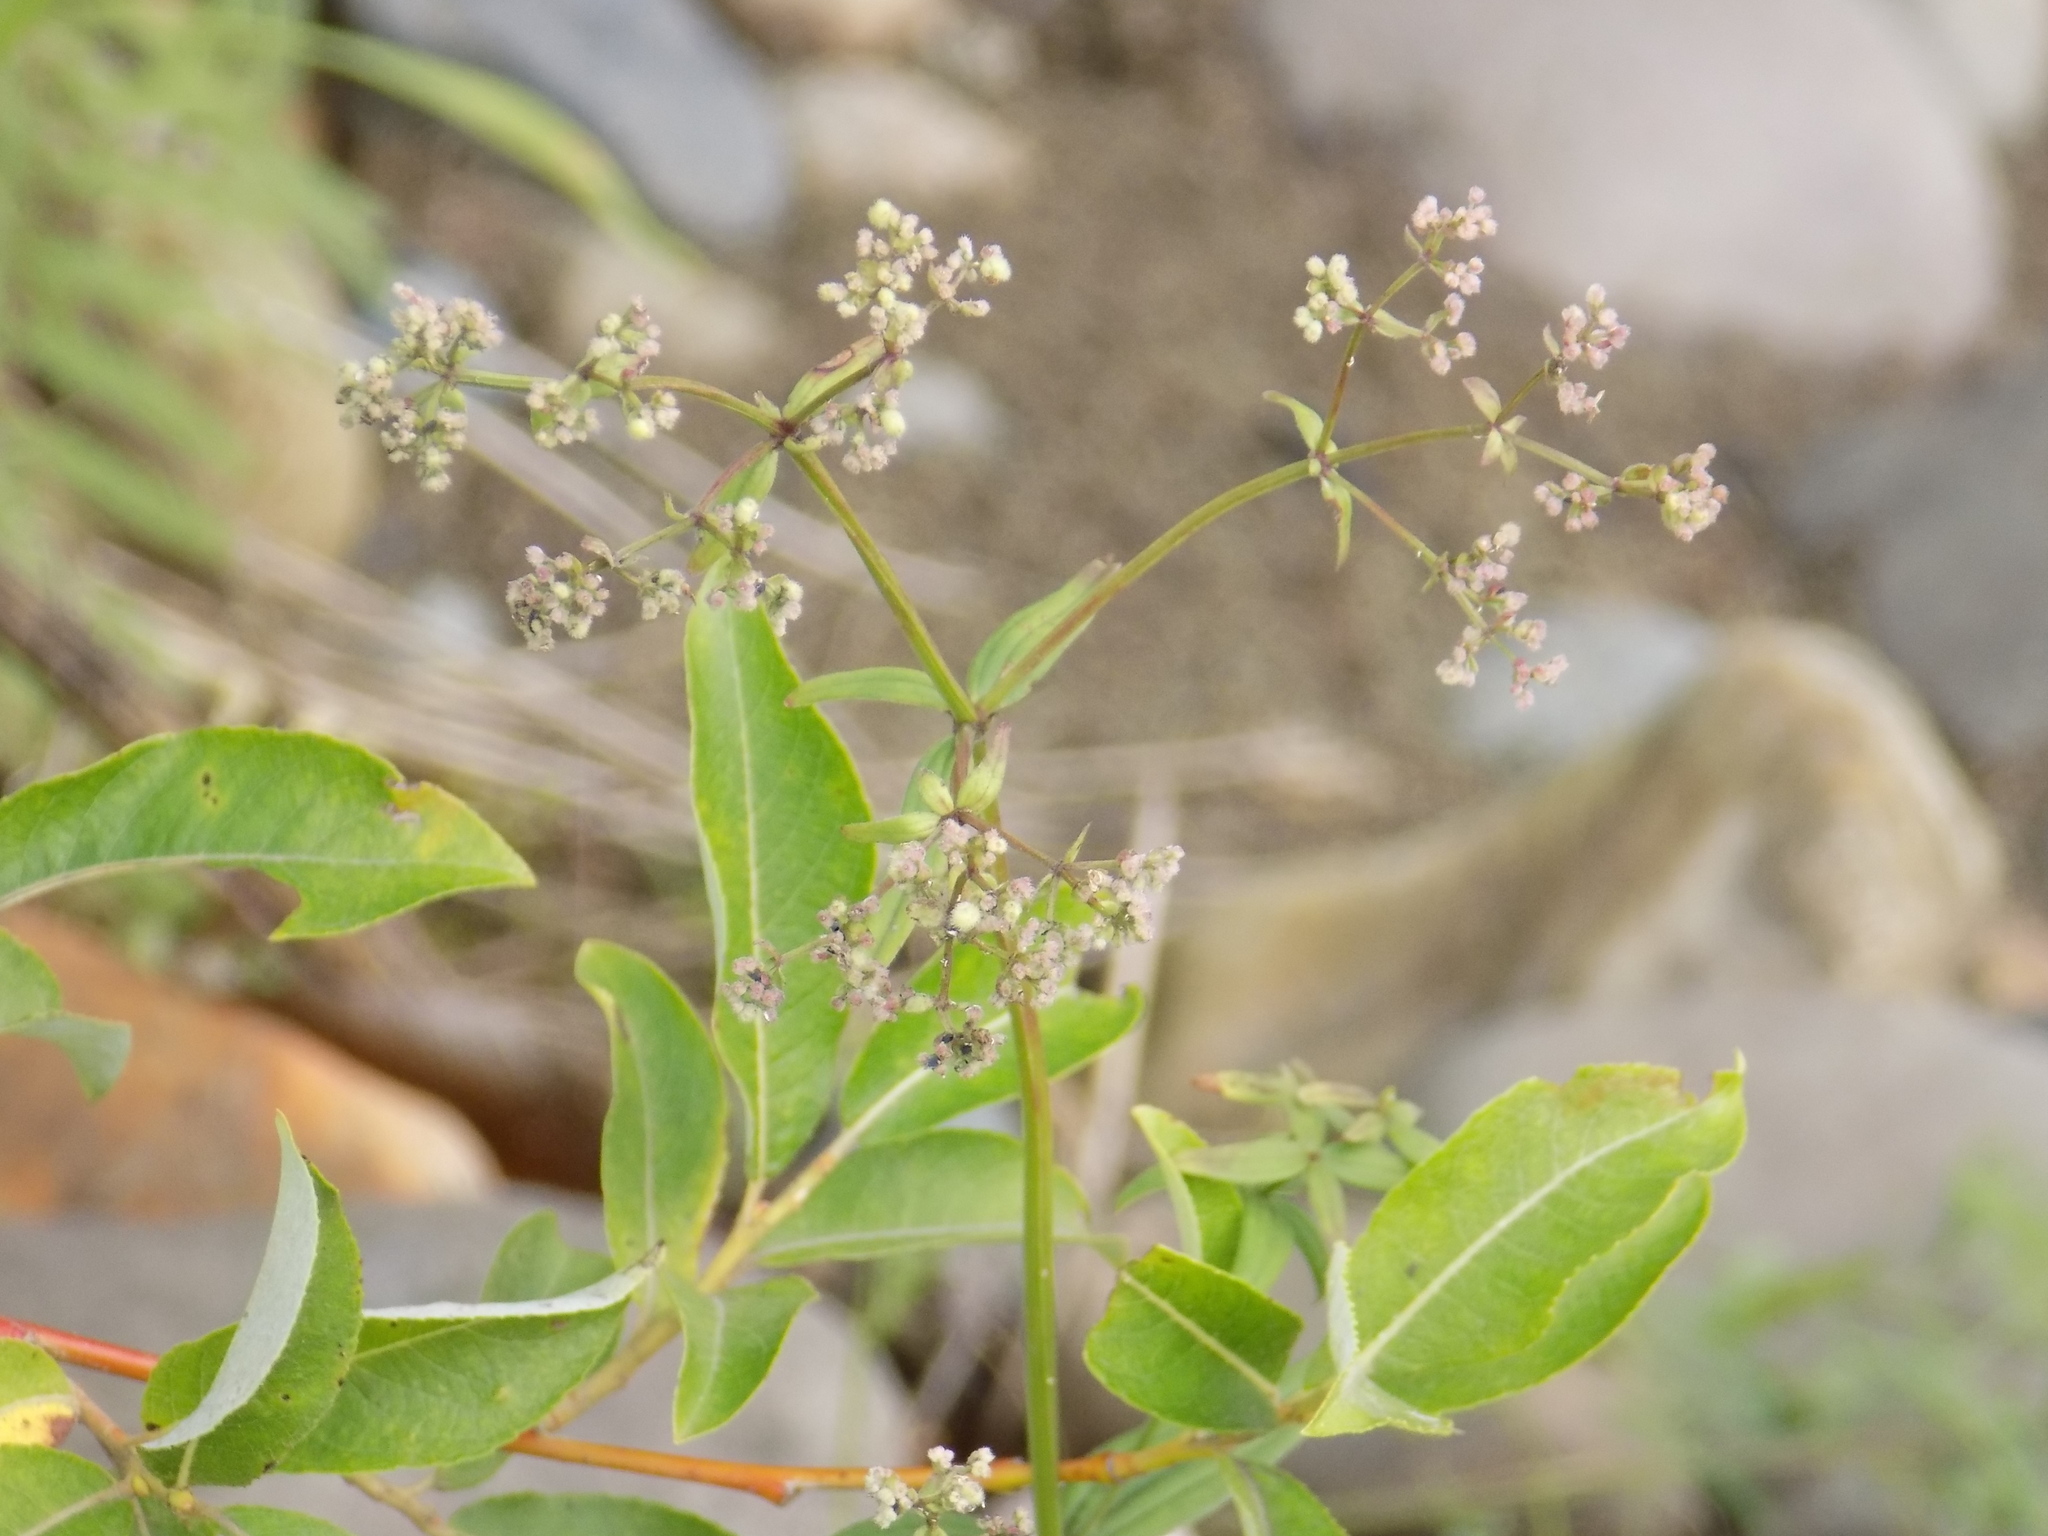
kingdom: Plantae
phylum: Tracheophyta
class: Magnoliopsida
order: Gentianales
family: Rubiaceae
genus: Galium
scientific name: Galium boreale
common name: Northern bedstraw
